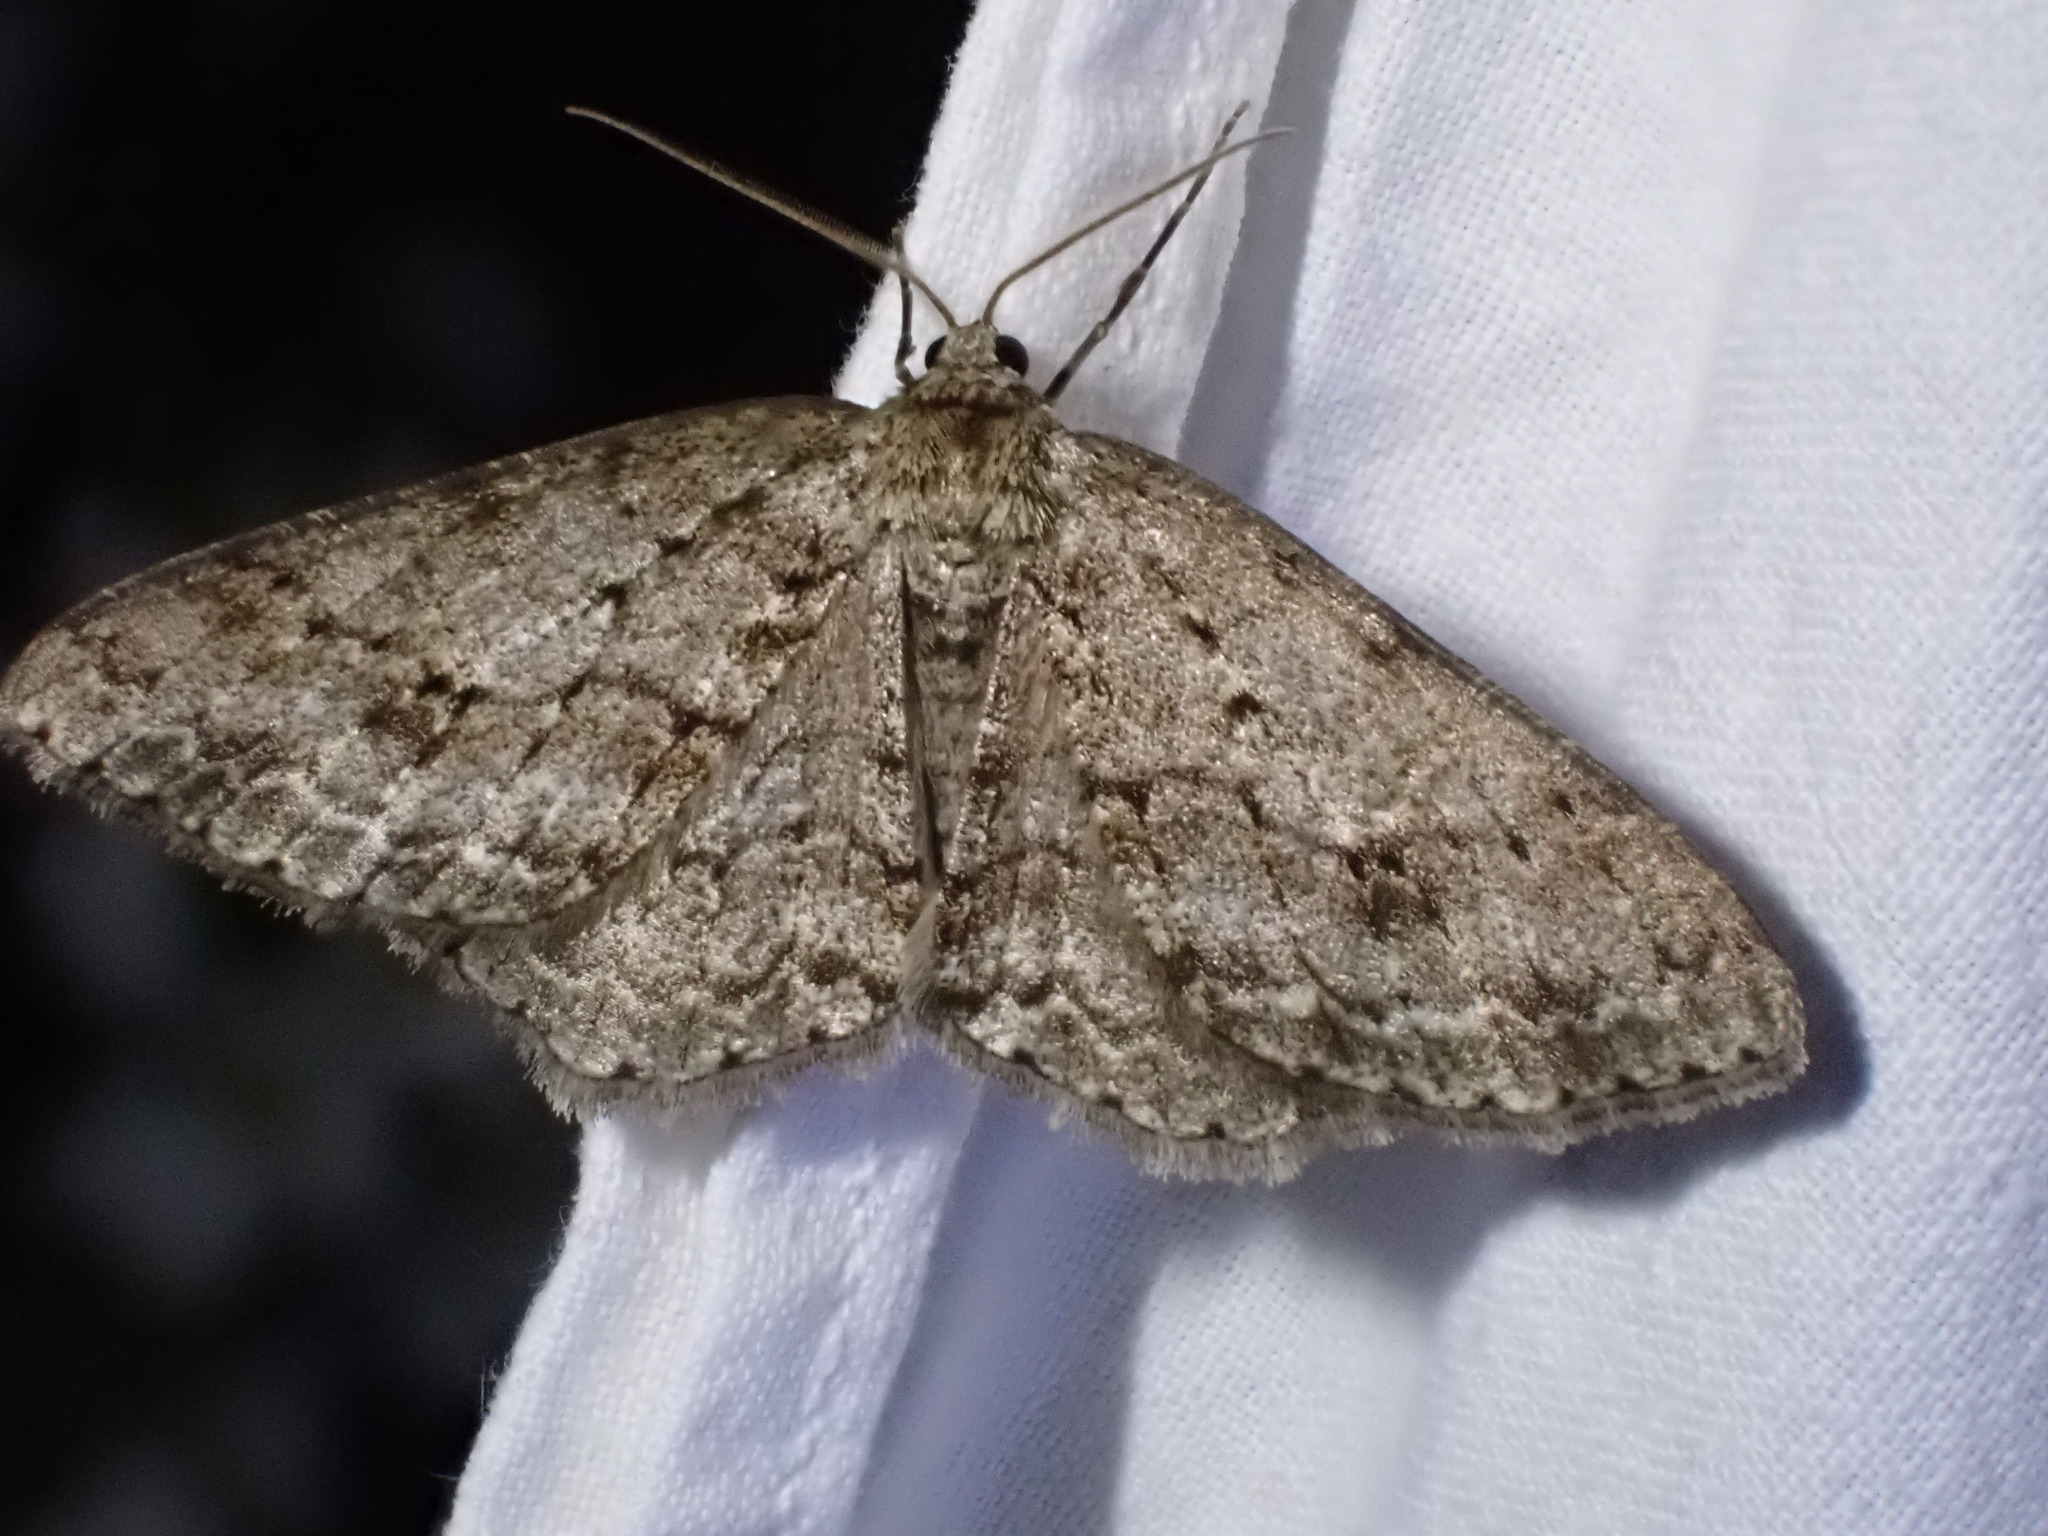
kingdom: Animalia
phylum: Arthropoda
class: Insecta
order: Lepidoptera
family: Geometridae
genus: Ectropis
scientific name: Ectropis crepuscularia
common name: Engrailed
